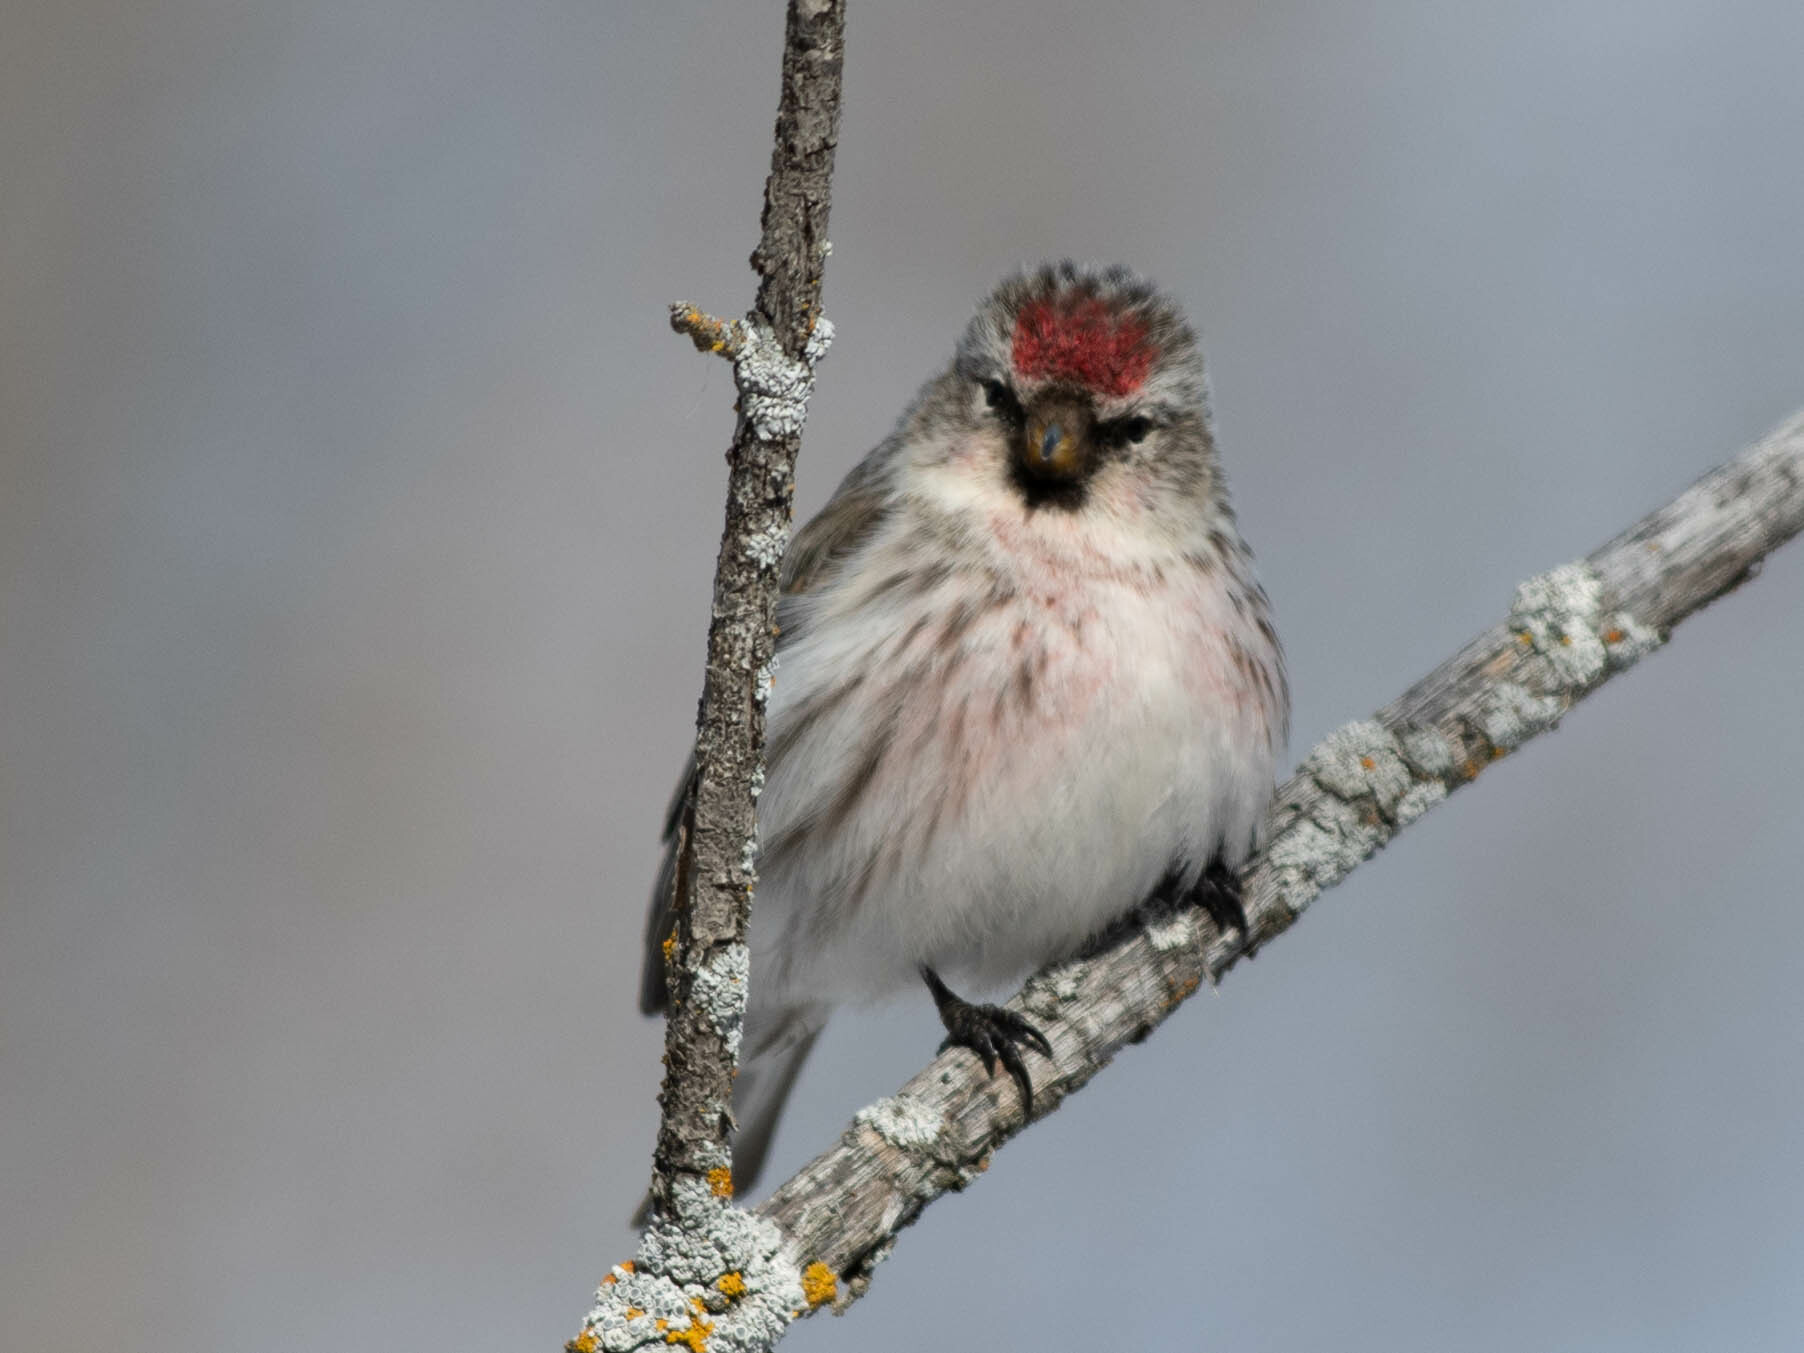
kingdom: Animalia
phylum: Chordata
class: Aves
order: Passeriformes
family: Fringillidae
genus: Acanthis
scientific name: Acanthis flammea
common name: Common redpoll
